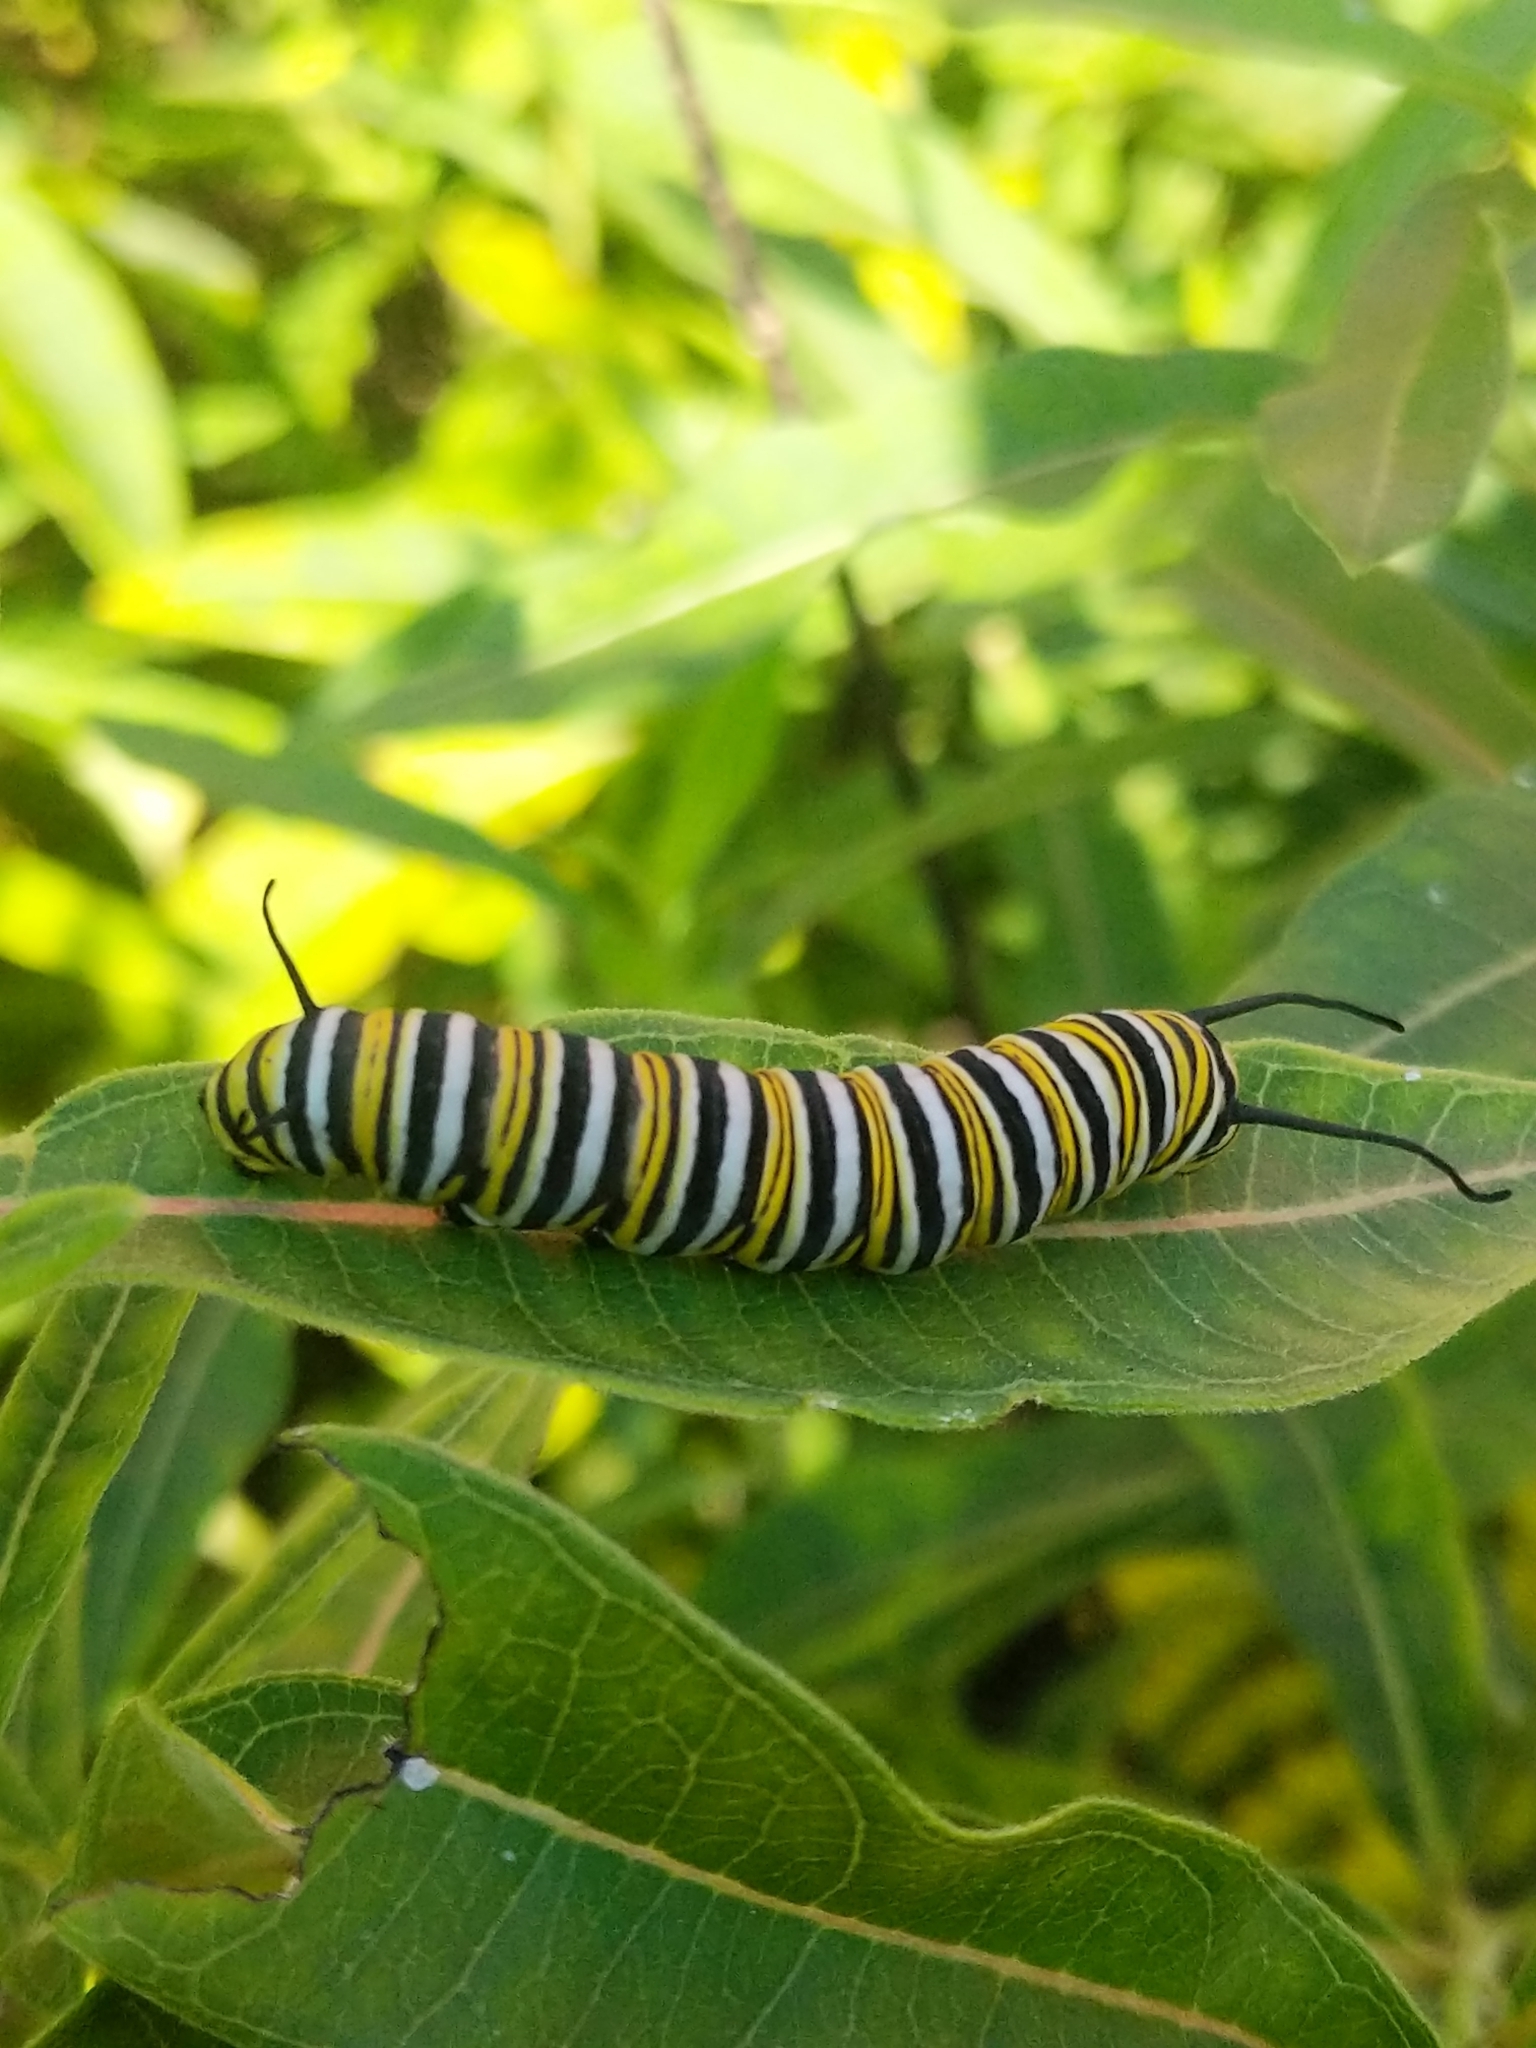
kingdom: Animalia
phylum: Arthropoda
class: Insecta
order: Lepidoptera
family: Nymphalidae
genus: Danaus
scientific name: Danaus plexippus
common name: Monarch
